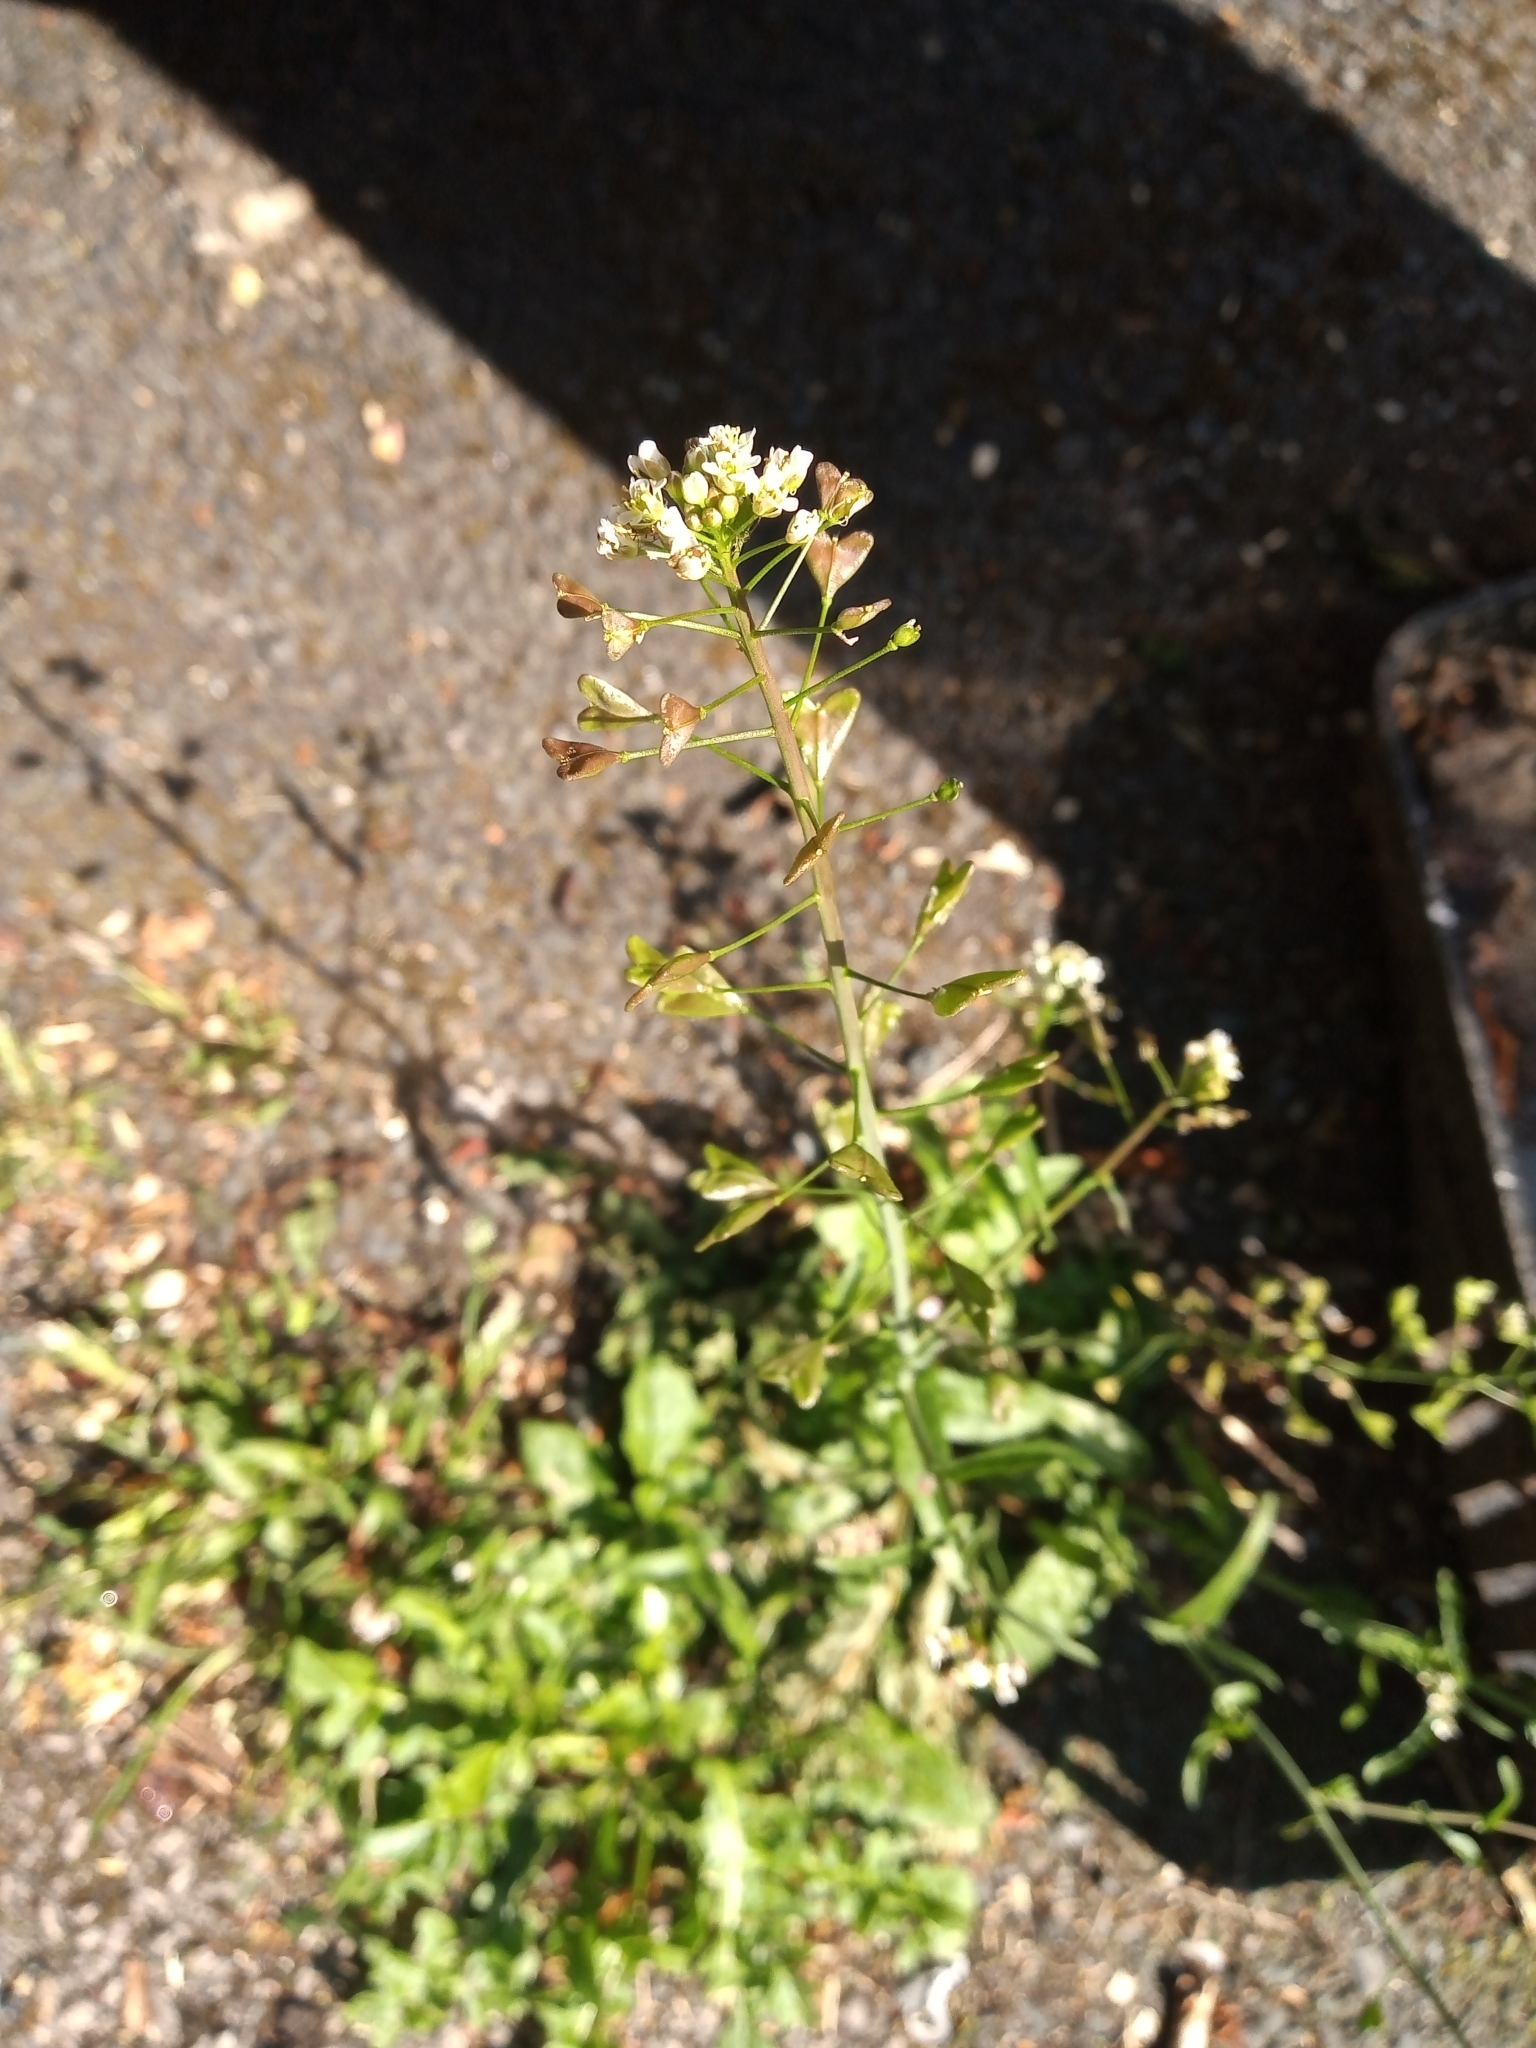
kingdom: Plantae
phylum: Tracheophyta
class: Magnoliopsida
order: Brassicales
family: Brassicaceae
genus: Capsella
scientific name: Capsella bursa-pastoris
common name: Shepherd's purse
